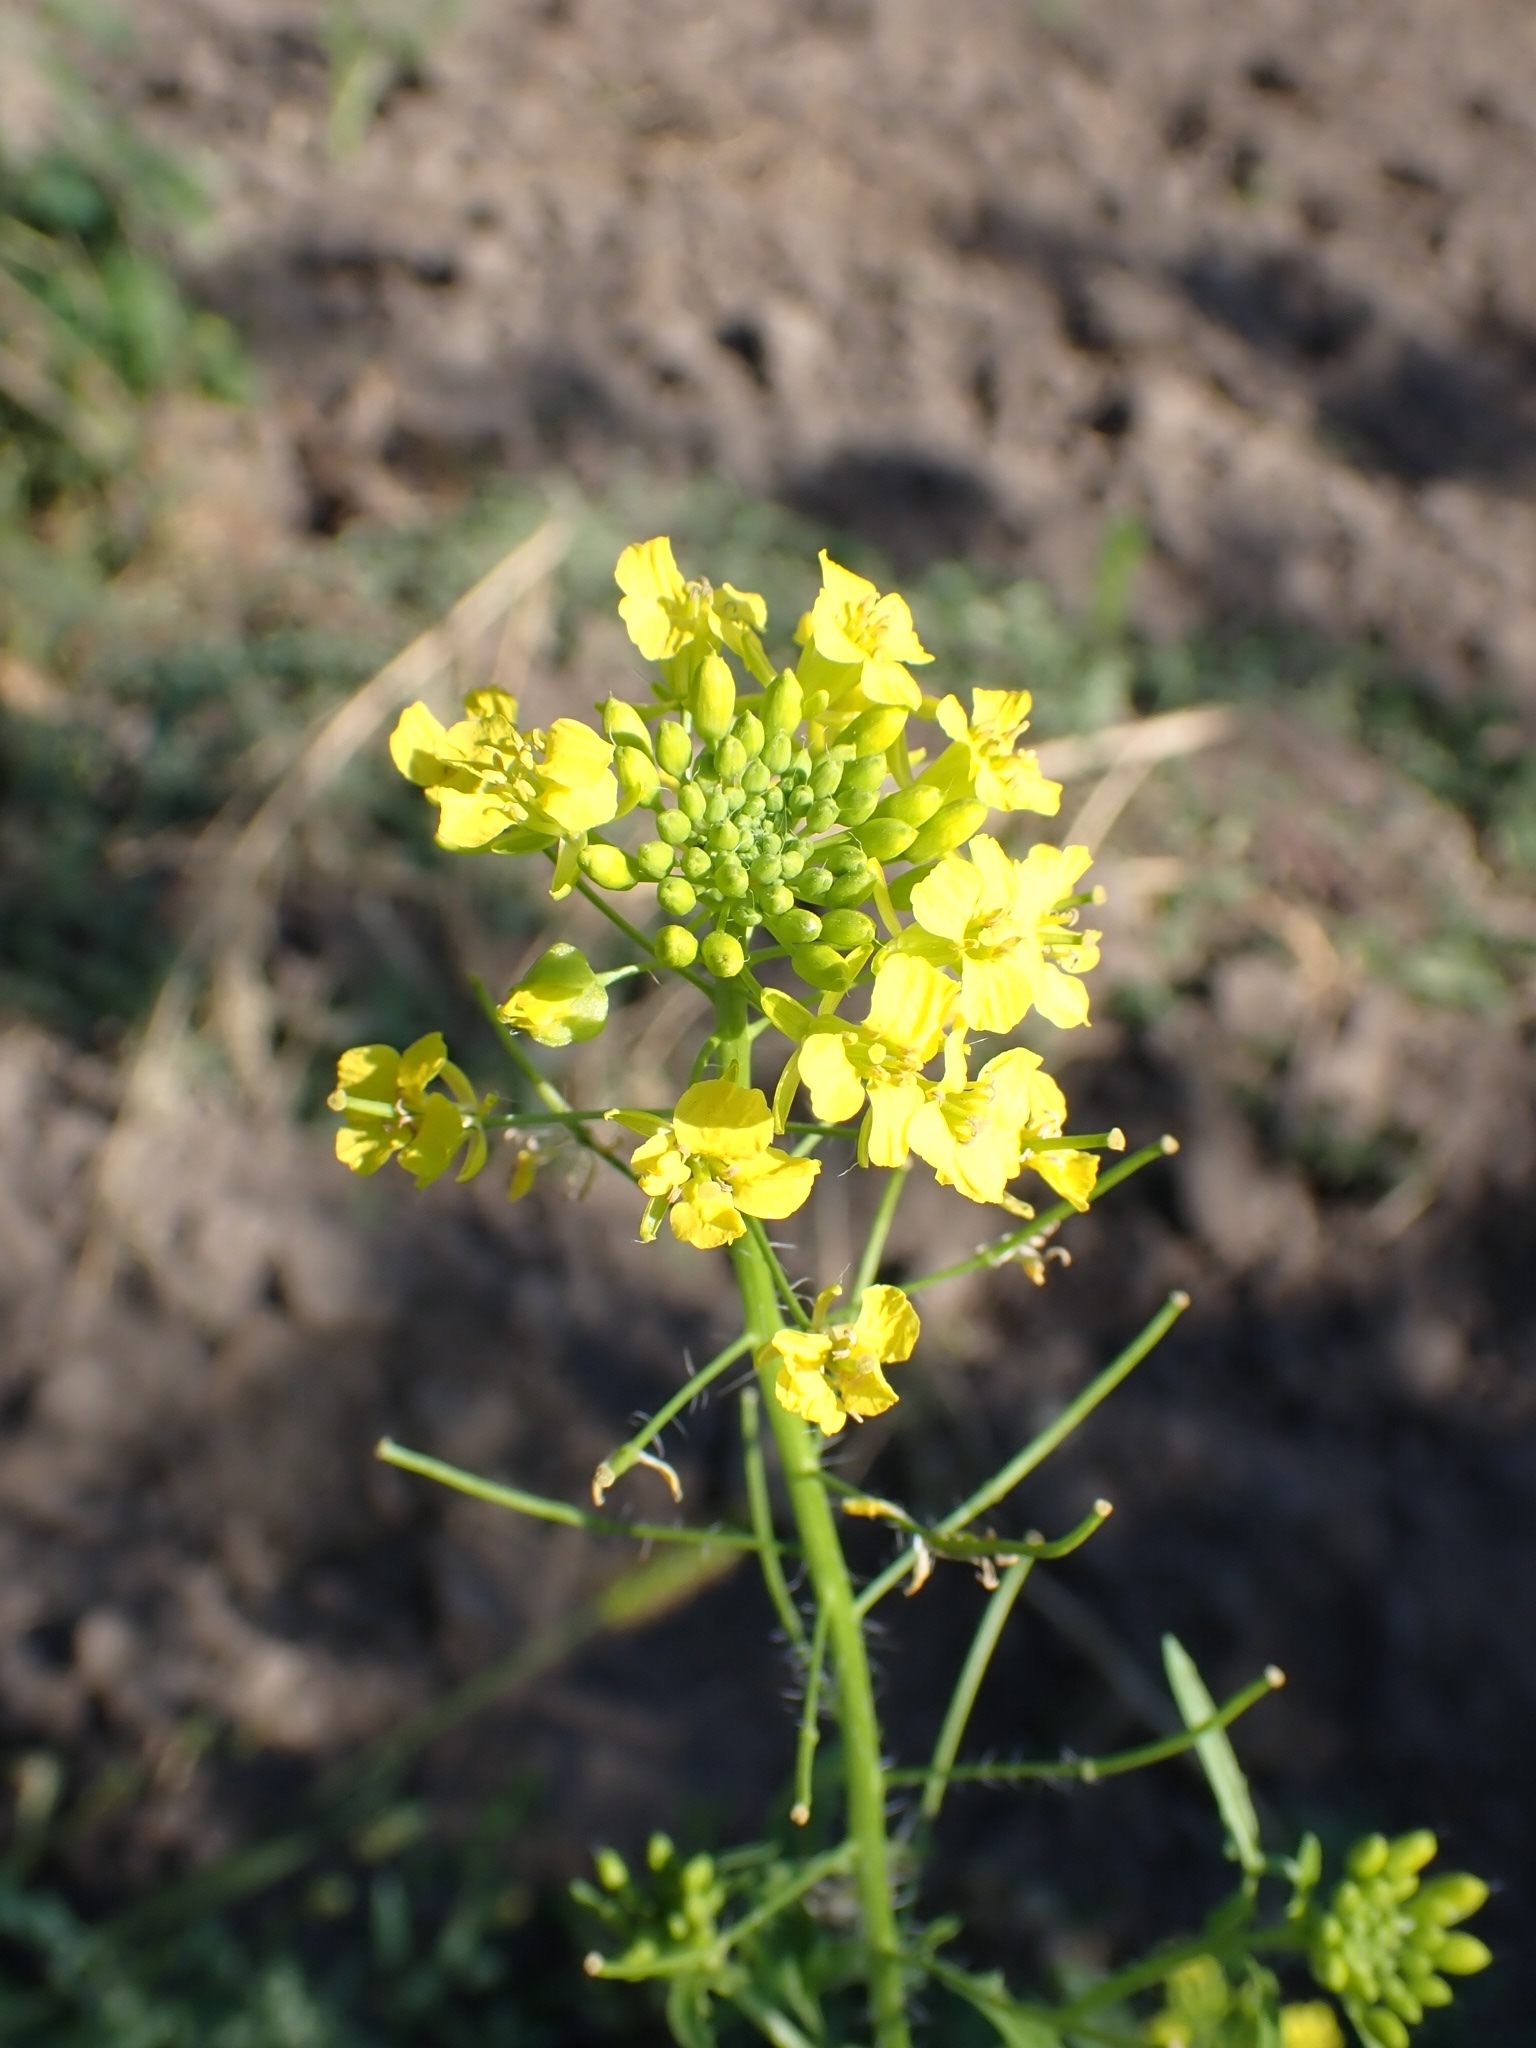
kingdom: Plantae
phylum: Tracheophyta
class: Magnoliopsida
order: Brassicales
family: Brassicaceae
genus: Sisymbrium
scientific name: Sisymbrium loeselii
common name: False london-rocket
